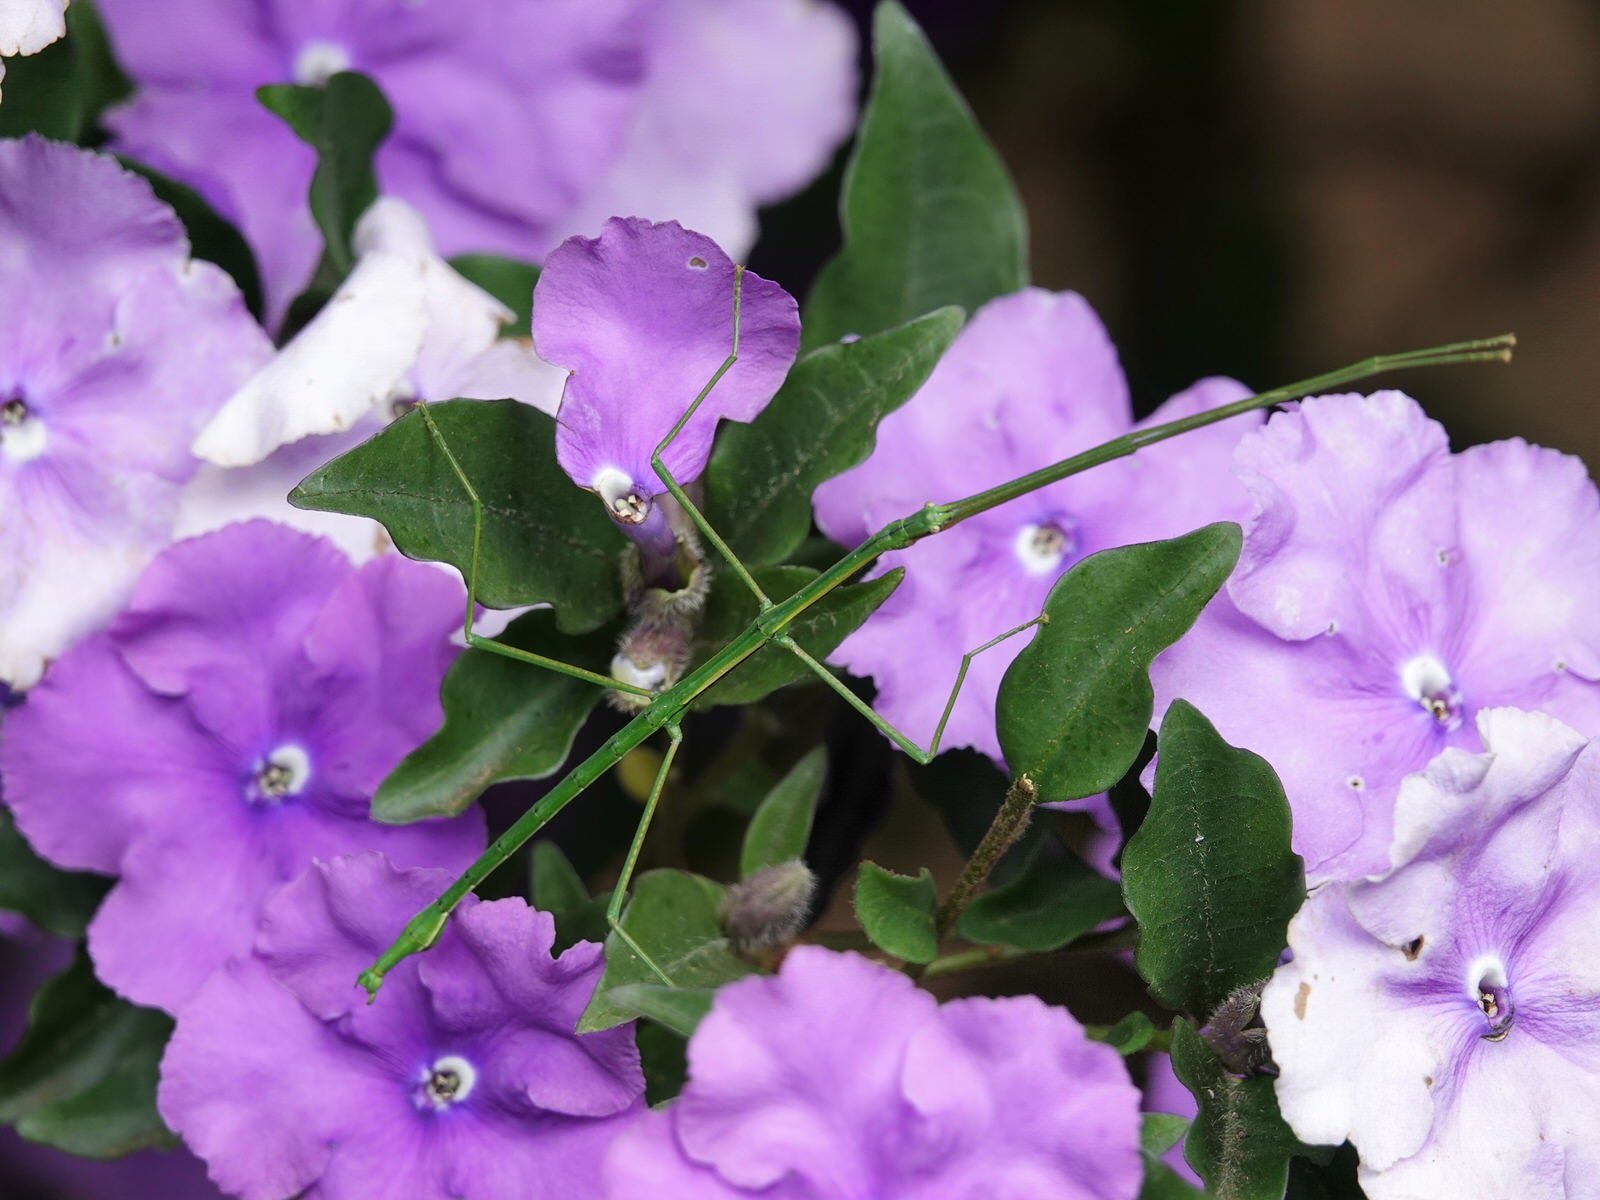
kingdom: Animalia
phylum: Arthropoda
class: Insecta
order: Phasmida
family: Phasmatidae
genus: Clitarchus
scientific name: Clitarchus hookeri
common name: Smooth stick insect
